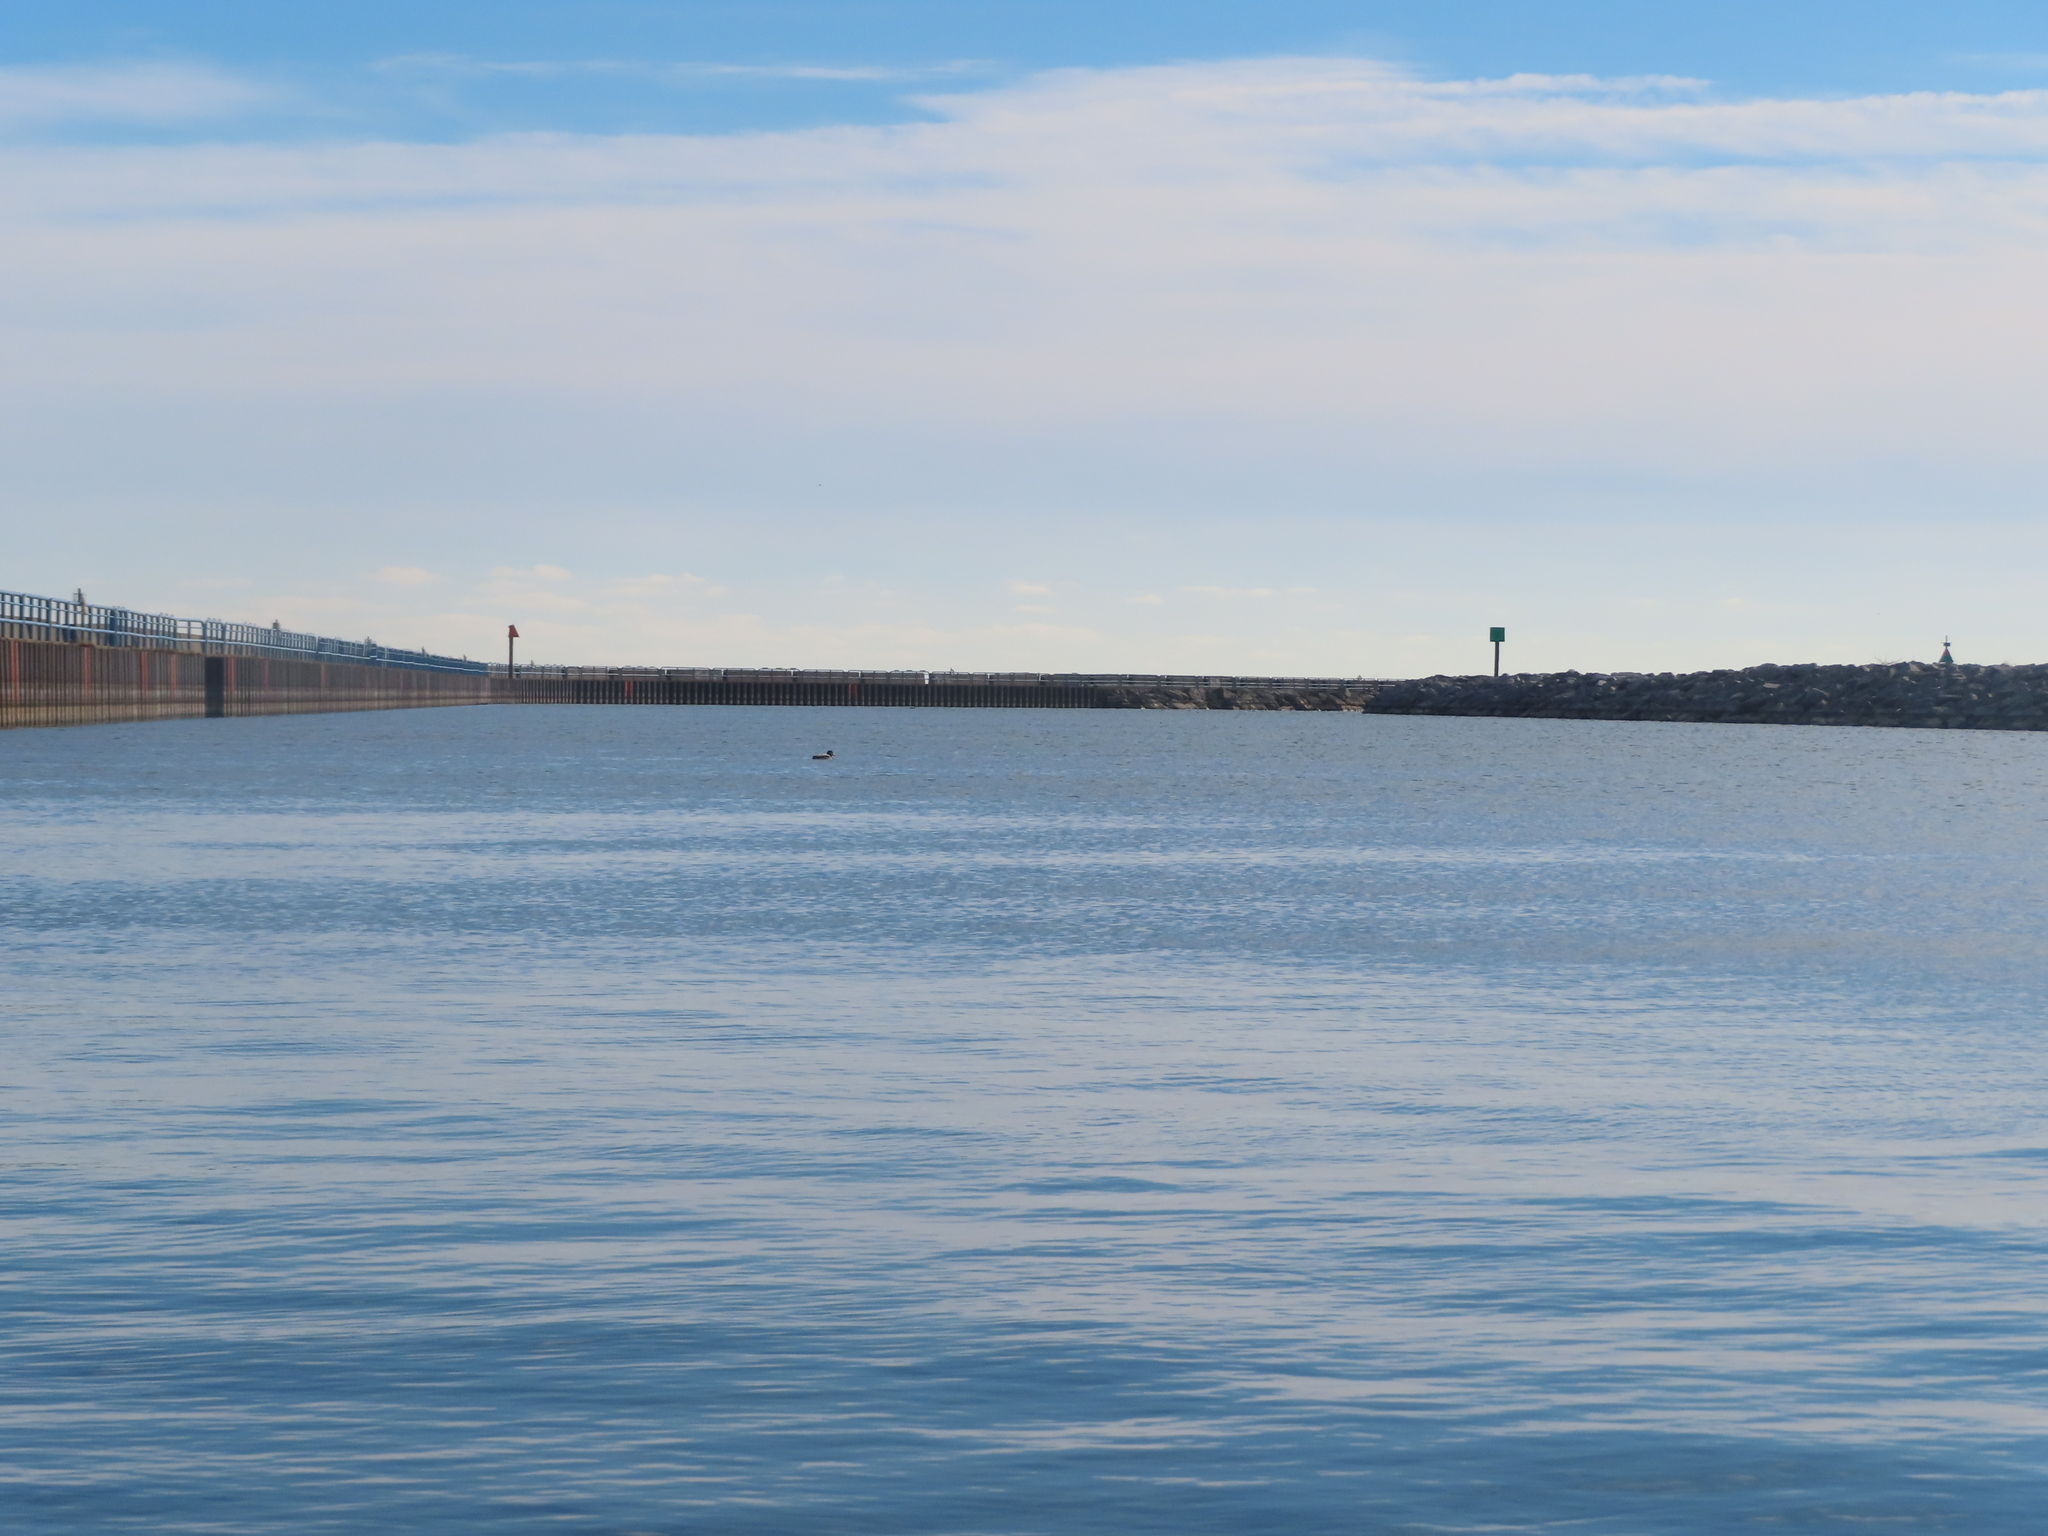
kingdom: Animalia
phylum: Chordata
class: Aves
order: Anseriformes
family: Anatidae
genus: Anas
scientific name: Anas platyrhynchos
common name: Mallard
